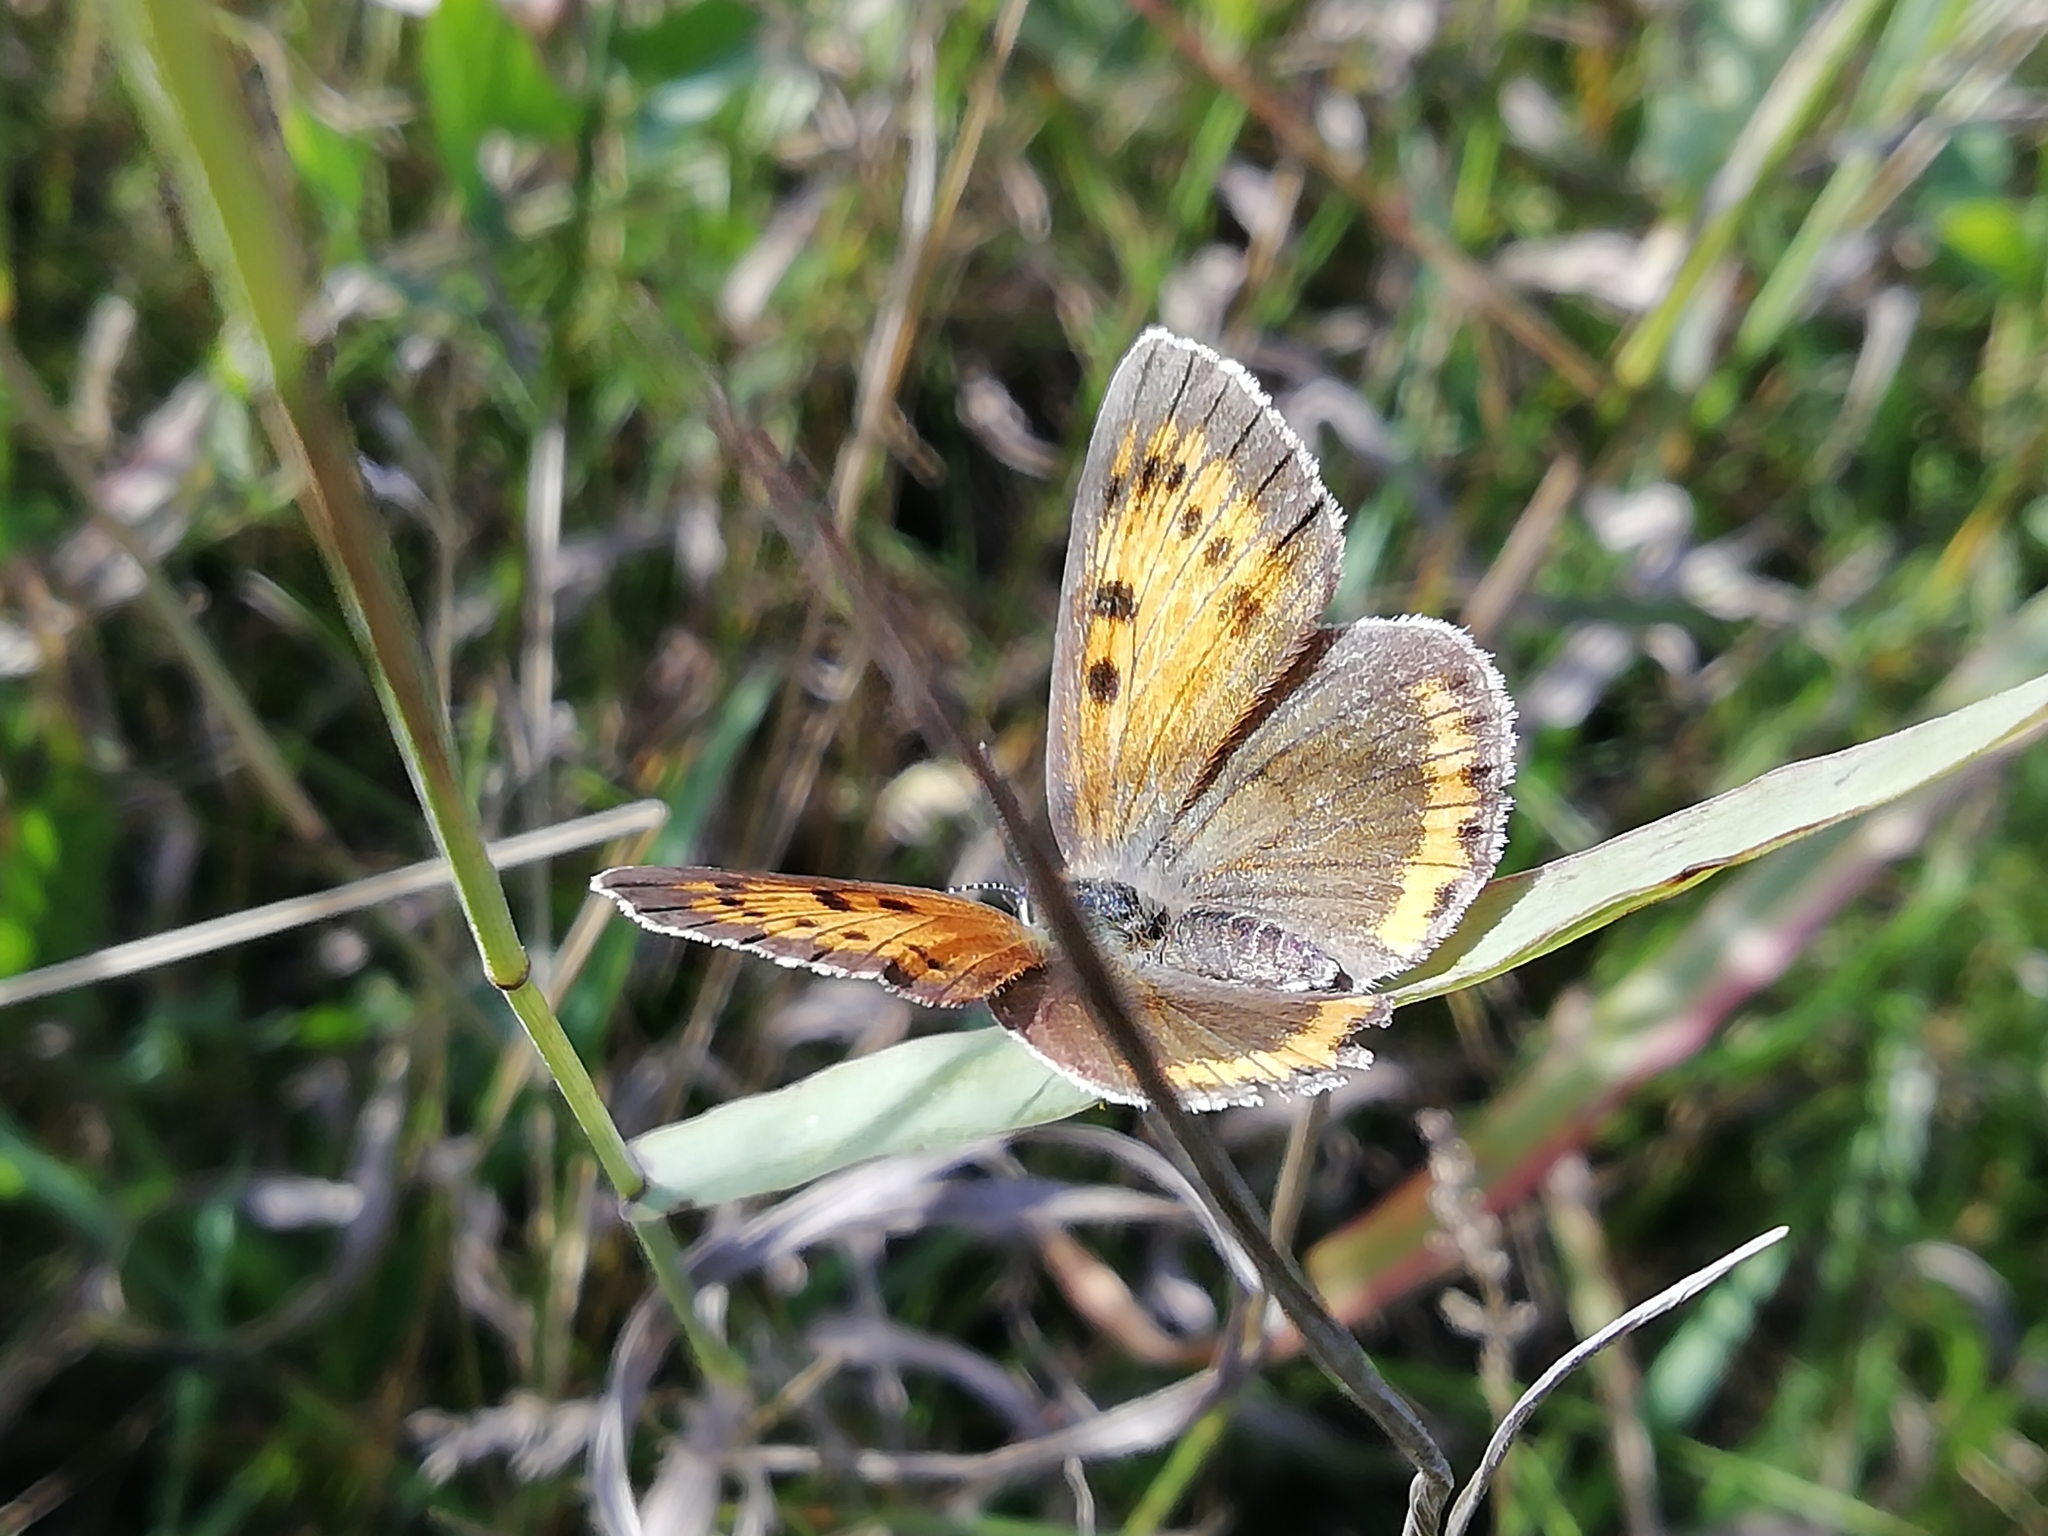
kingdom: Animalia
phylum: Arthropoda
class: Insecta
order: Lepidoptera
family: Lycaenidae
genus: Lycaena
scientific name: Lycaena dispar
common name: Large copper
